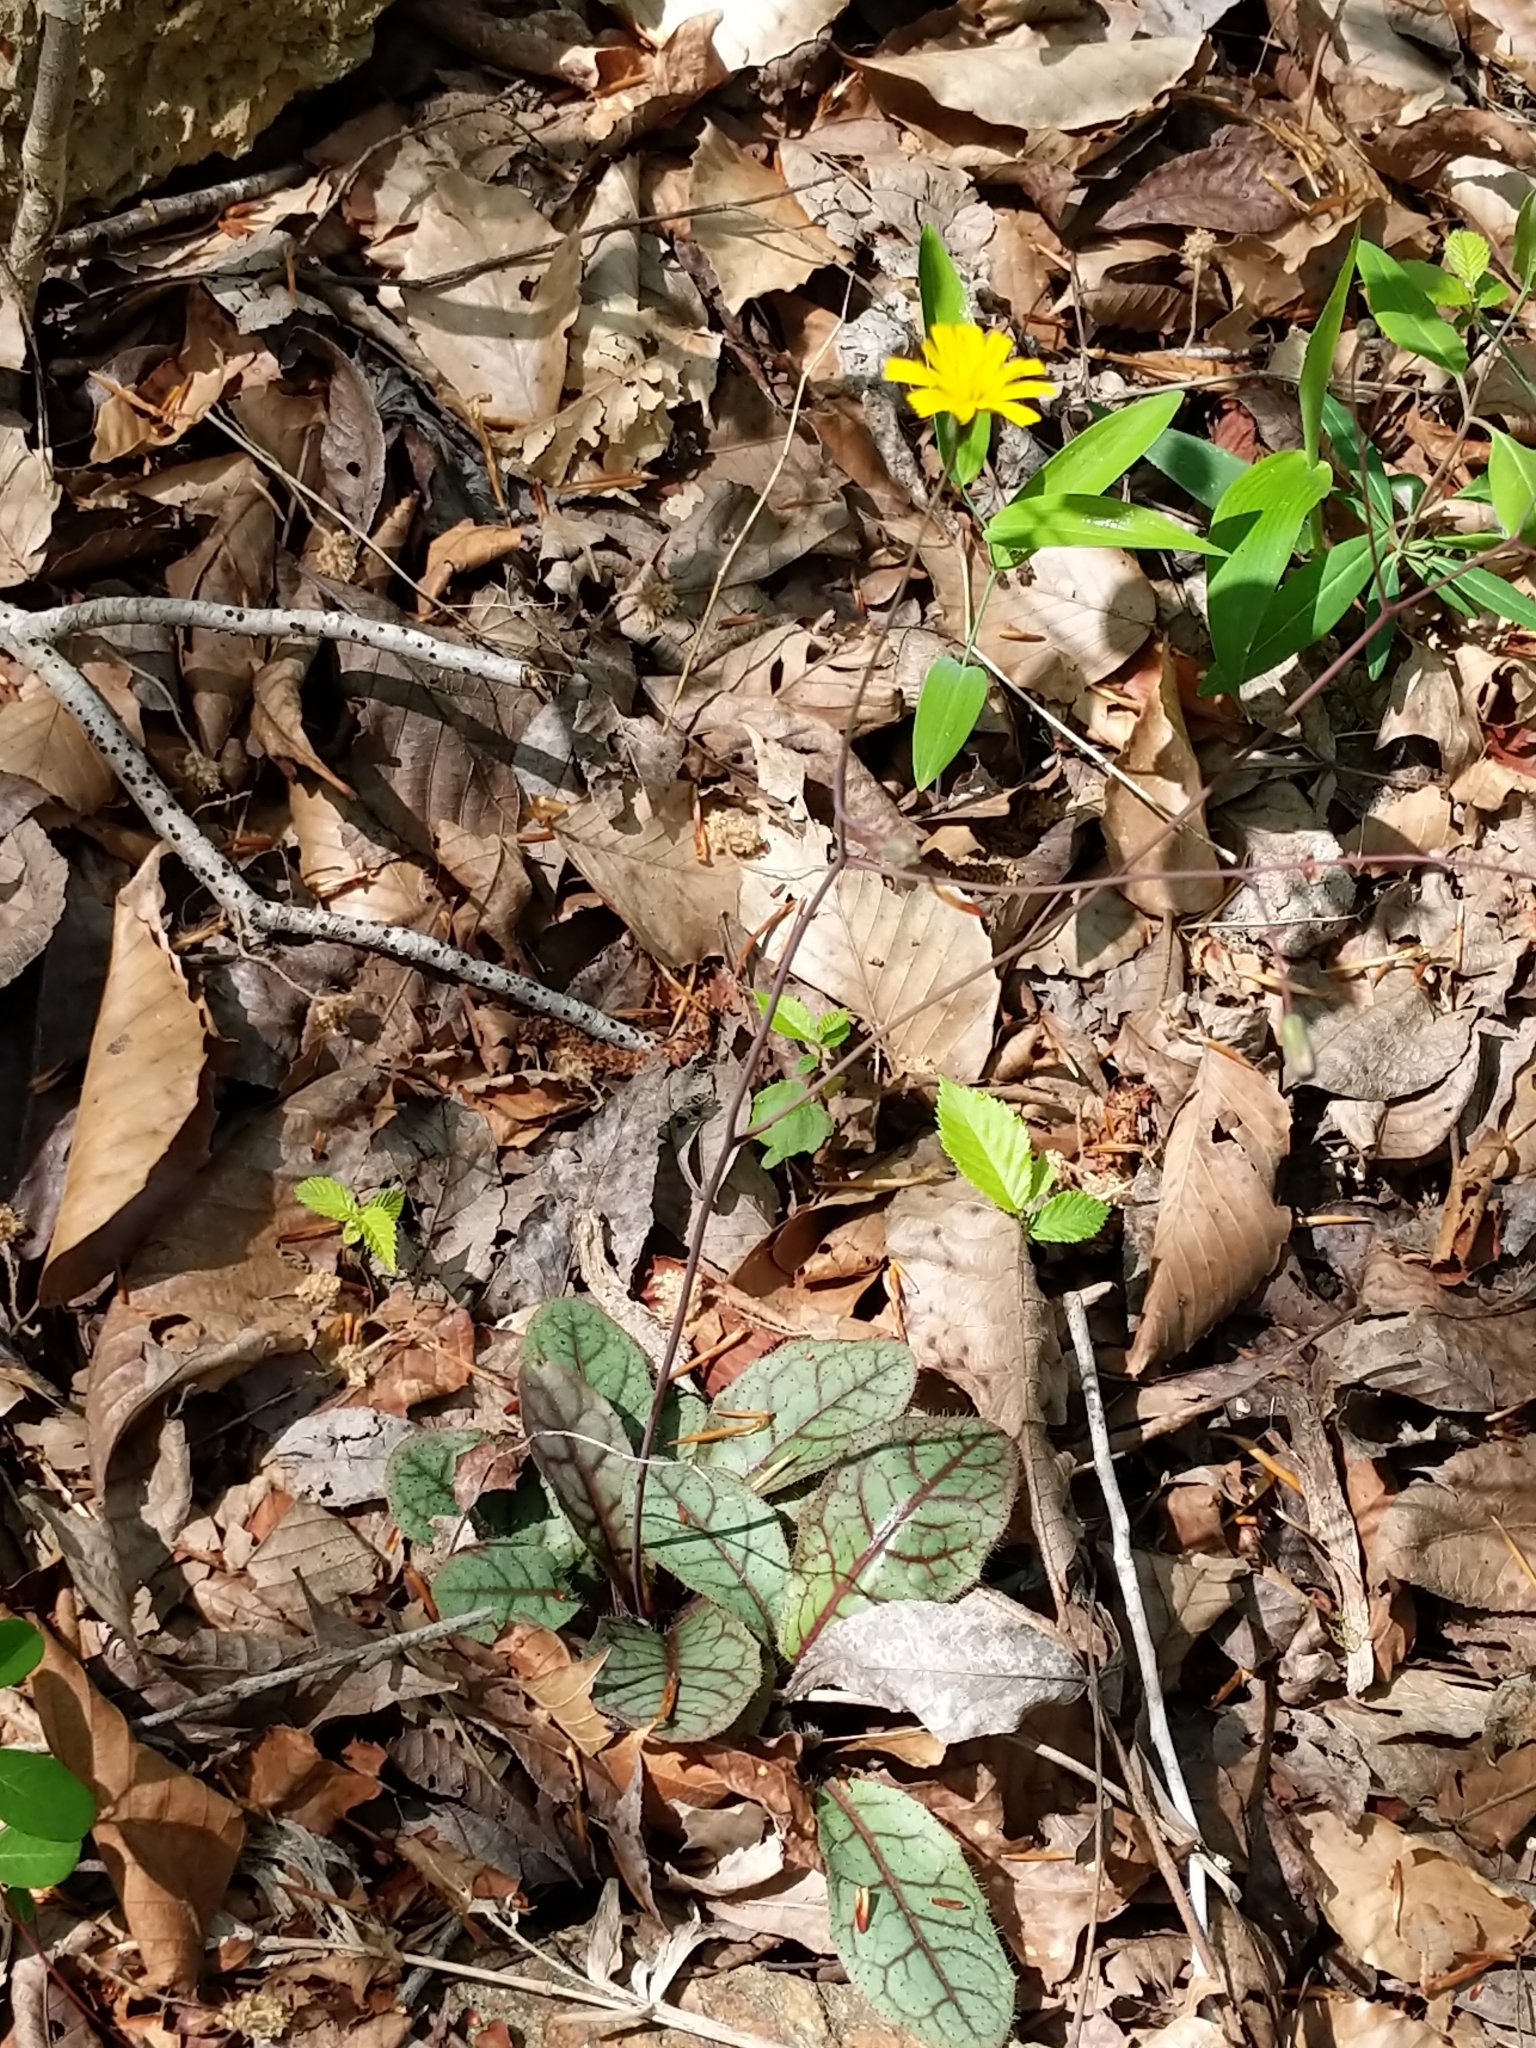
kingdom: Plantae
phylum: Tracheophyta
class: Magnoliopsida
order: Asterales
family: Asteraceae
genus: Hieracium
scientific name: Hieracium venosum
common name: Rattlesnake hawkweed
